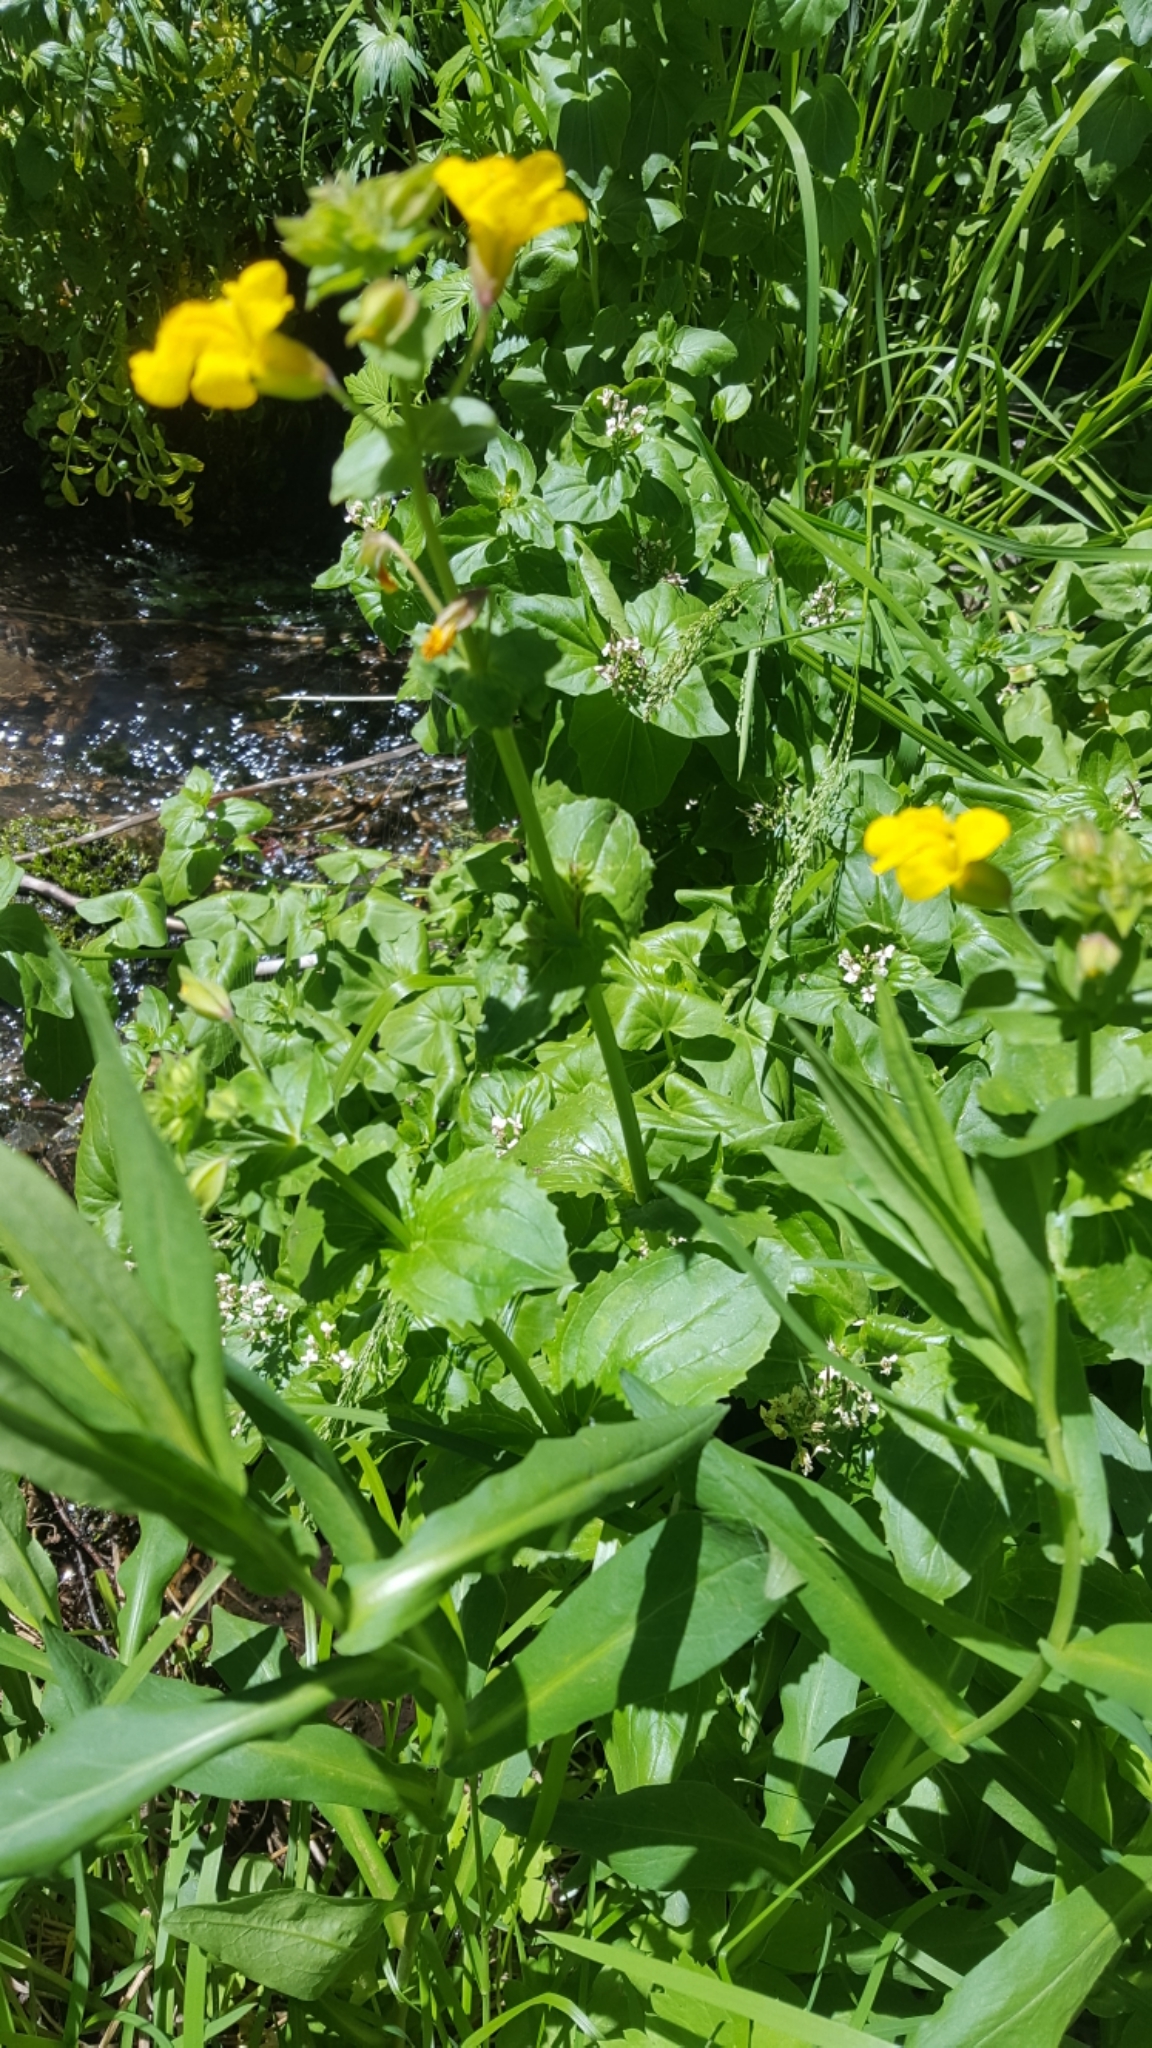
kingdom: Plantae
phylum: Tracheophyta
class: Magnoliopsida
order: Lamiales
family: Phrymaceae
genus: Erythranthe
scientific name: Erythranthe guttata
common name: Monkeyflower
